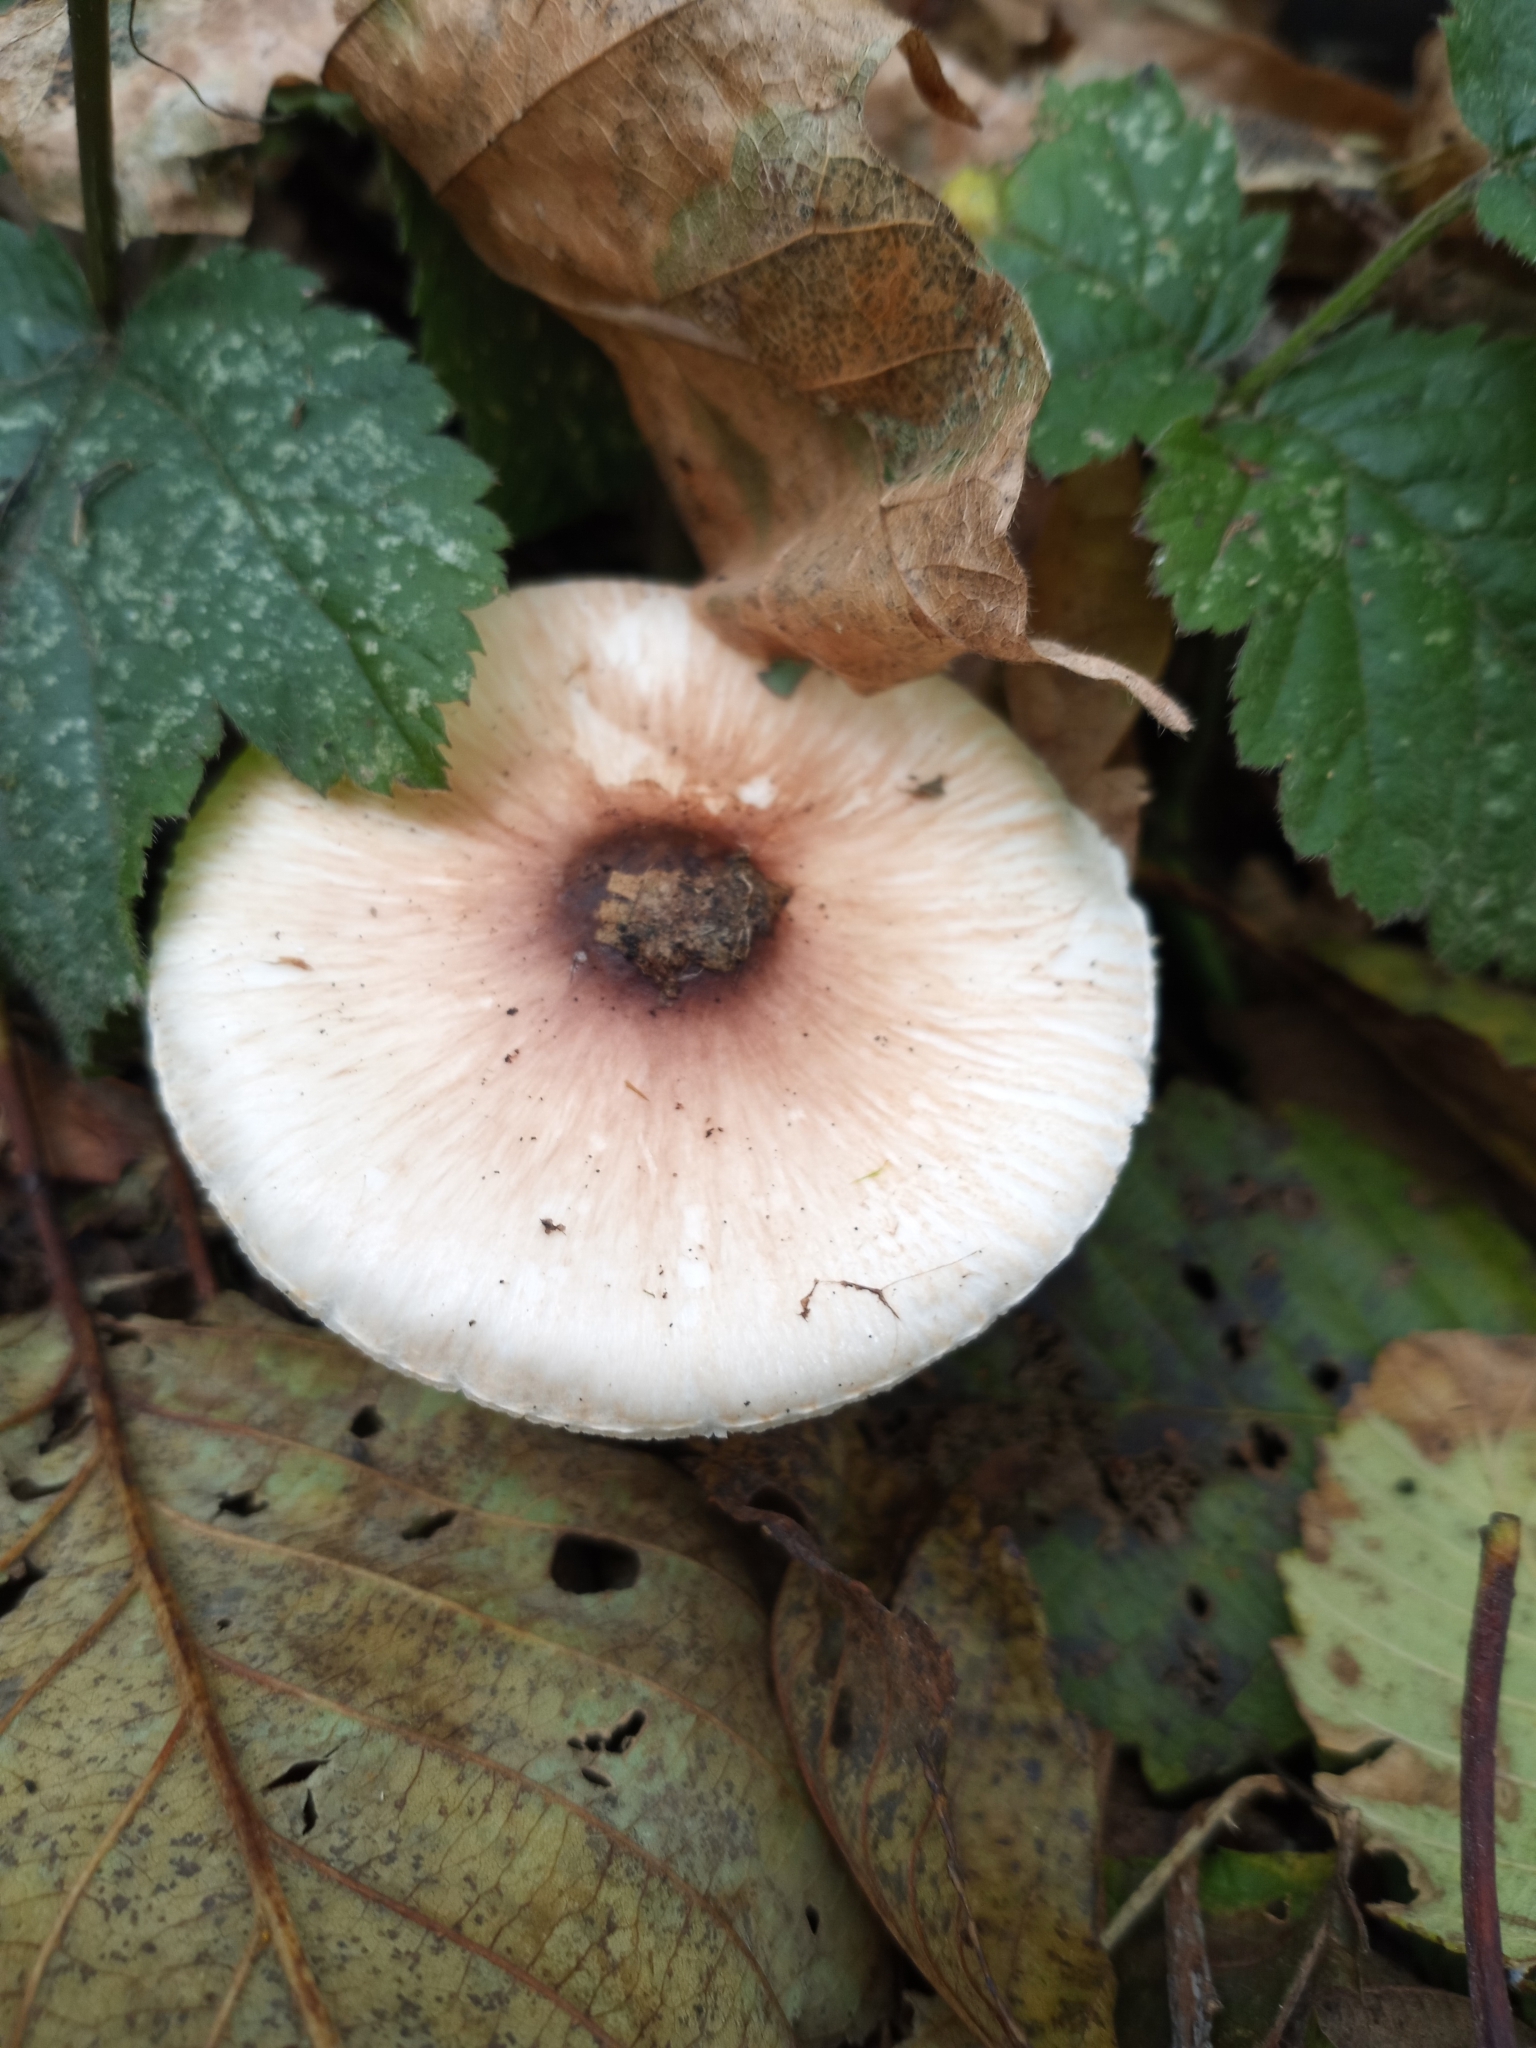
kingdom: Fungi
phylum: Basidiomycota
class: Agaricomycetes
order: Agaricales
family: Agaricaceae
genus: Lepiota
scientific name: Lepiota rubrotinctoides
